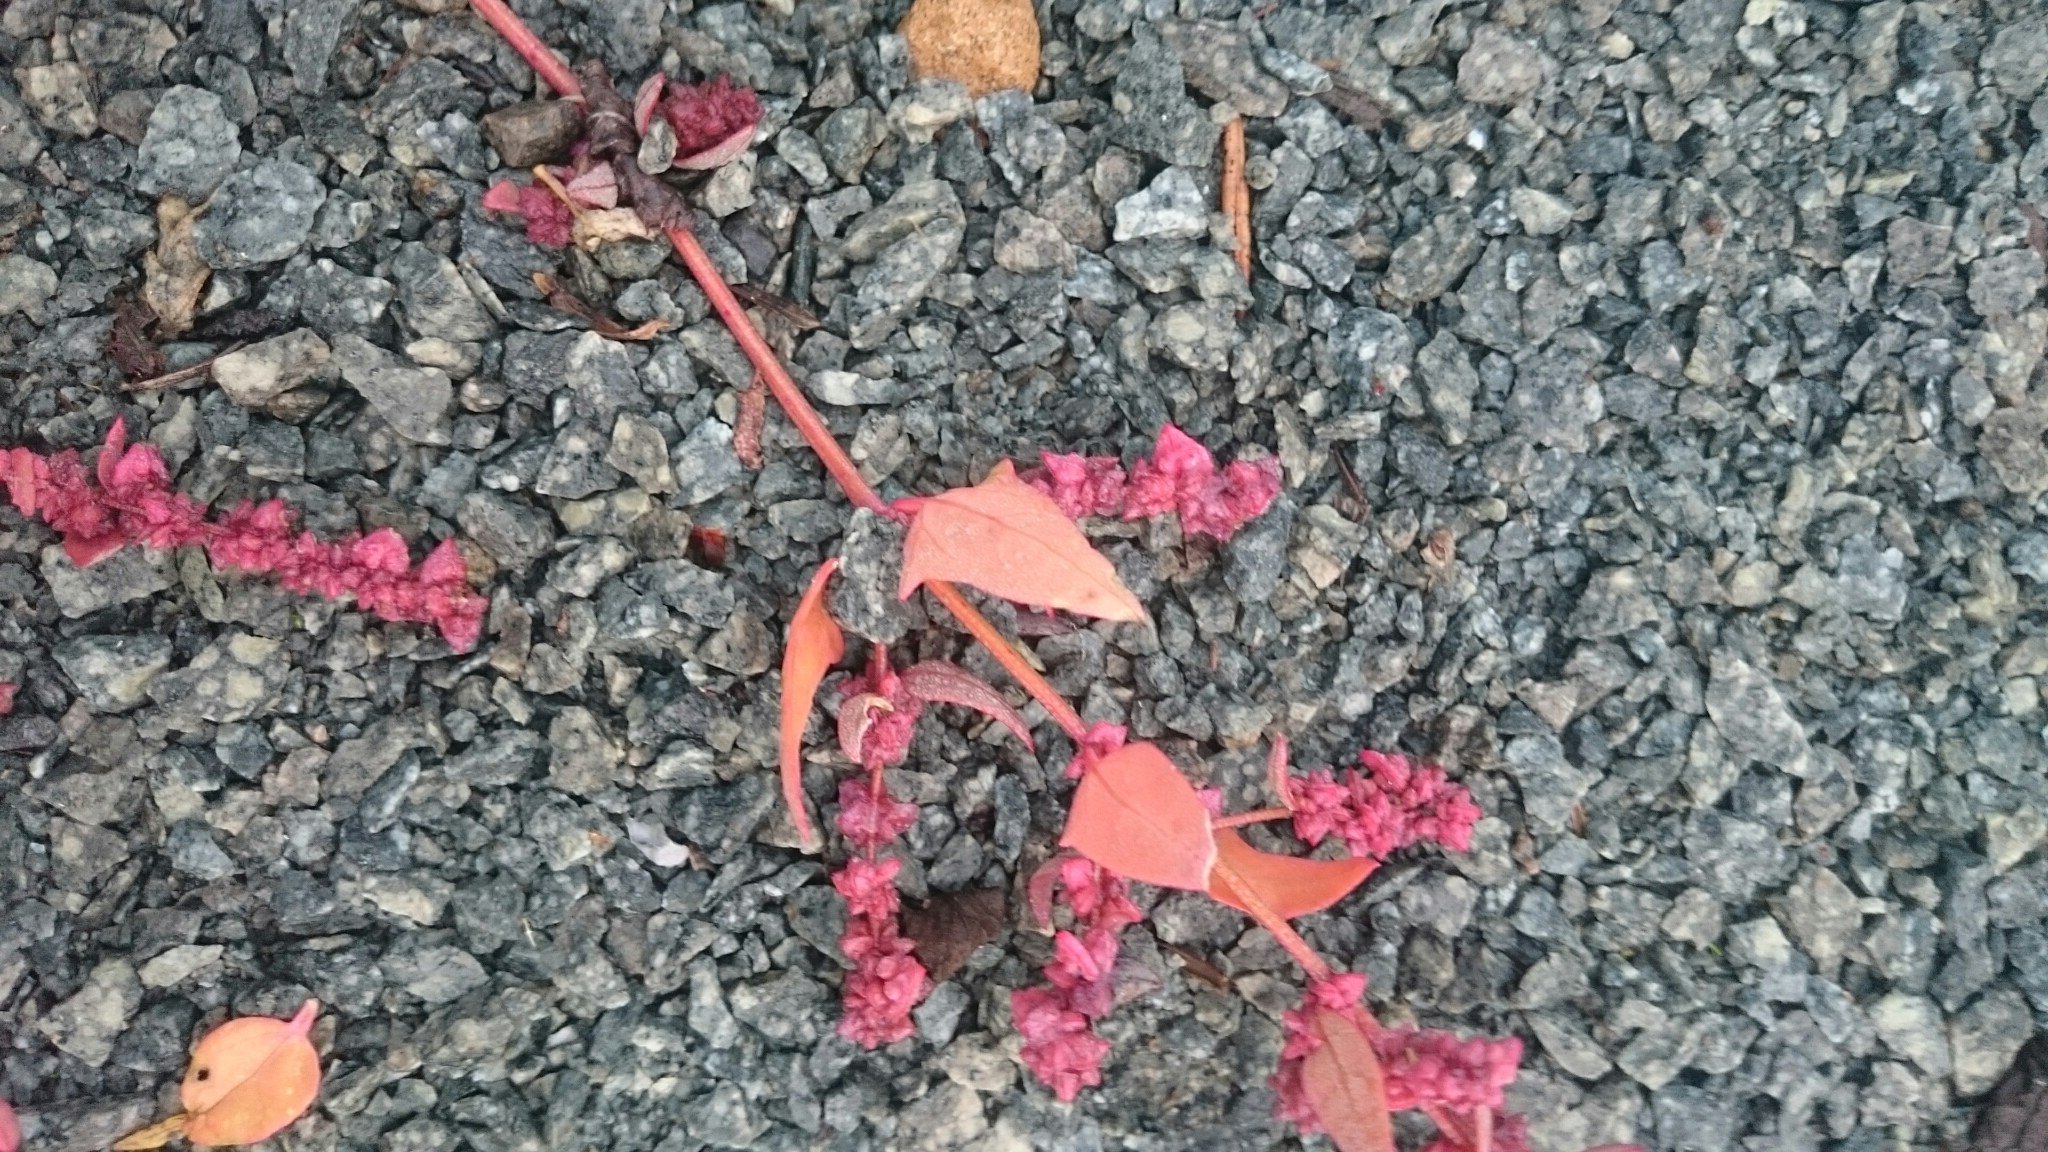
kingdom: Plantae
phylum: Tracheophyta
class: Magnoliopsida
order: Caryophyllales
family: Amaranthaceae
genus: Atriplex
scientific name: Atriplex prostrata
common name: Spear-leaved orache
